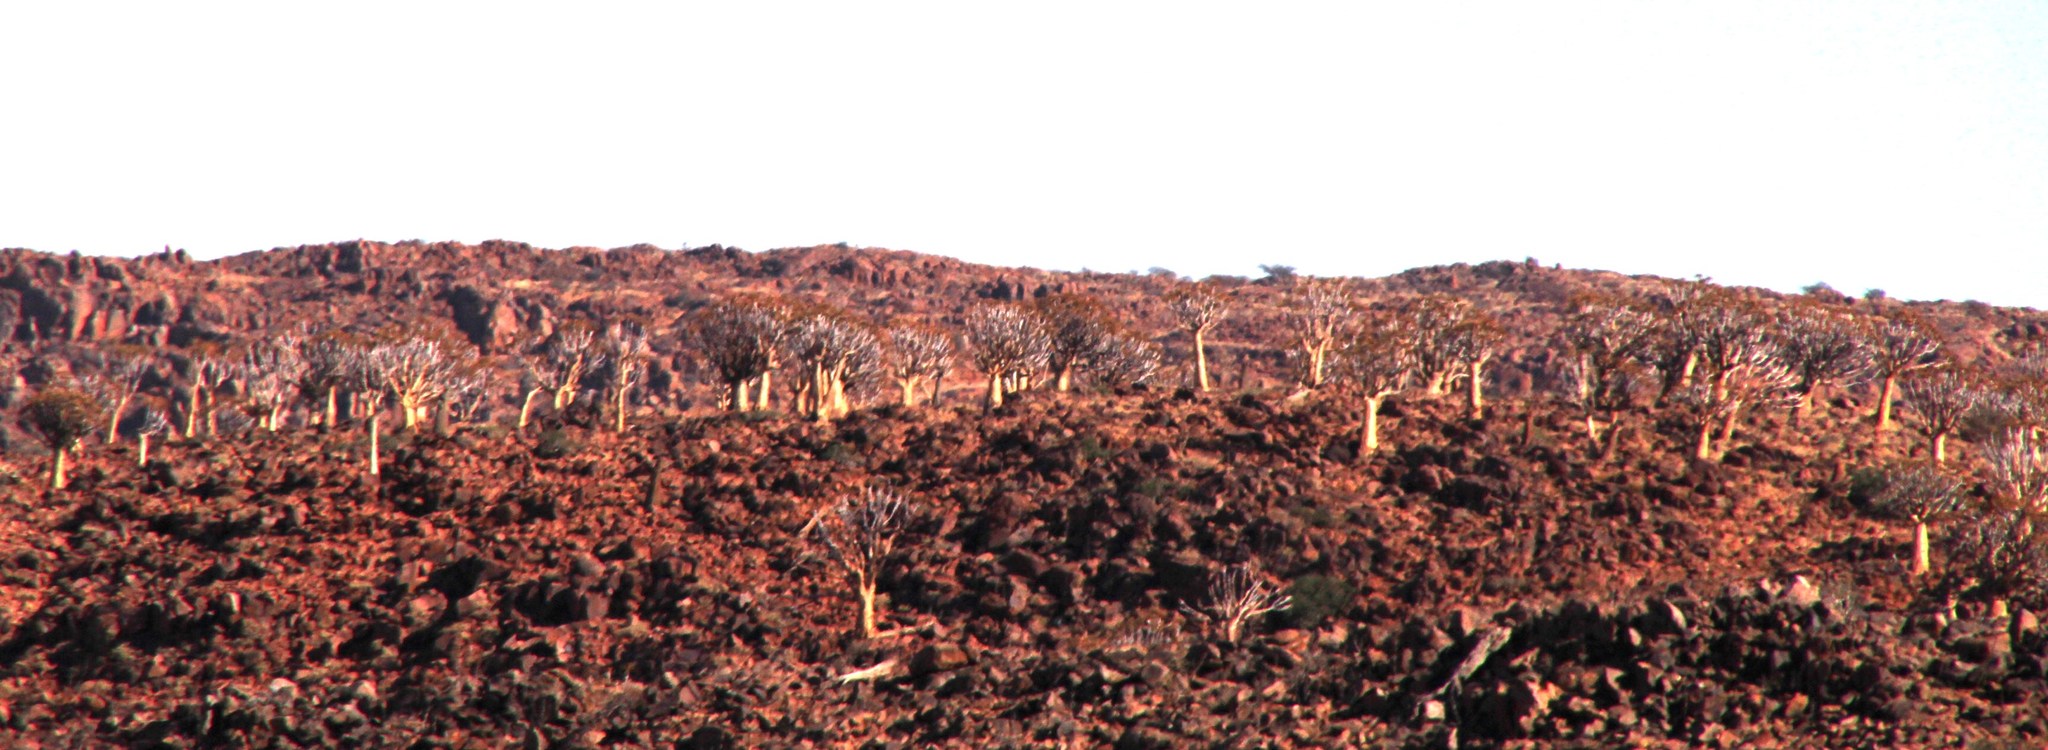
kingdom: Plantae
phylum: Tracheophyta
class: Liliopsida
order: Asparagales
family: Asphodelaceae
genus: Aloidendron
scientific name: Aloidendron dichotomum
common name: Quiver tree
